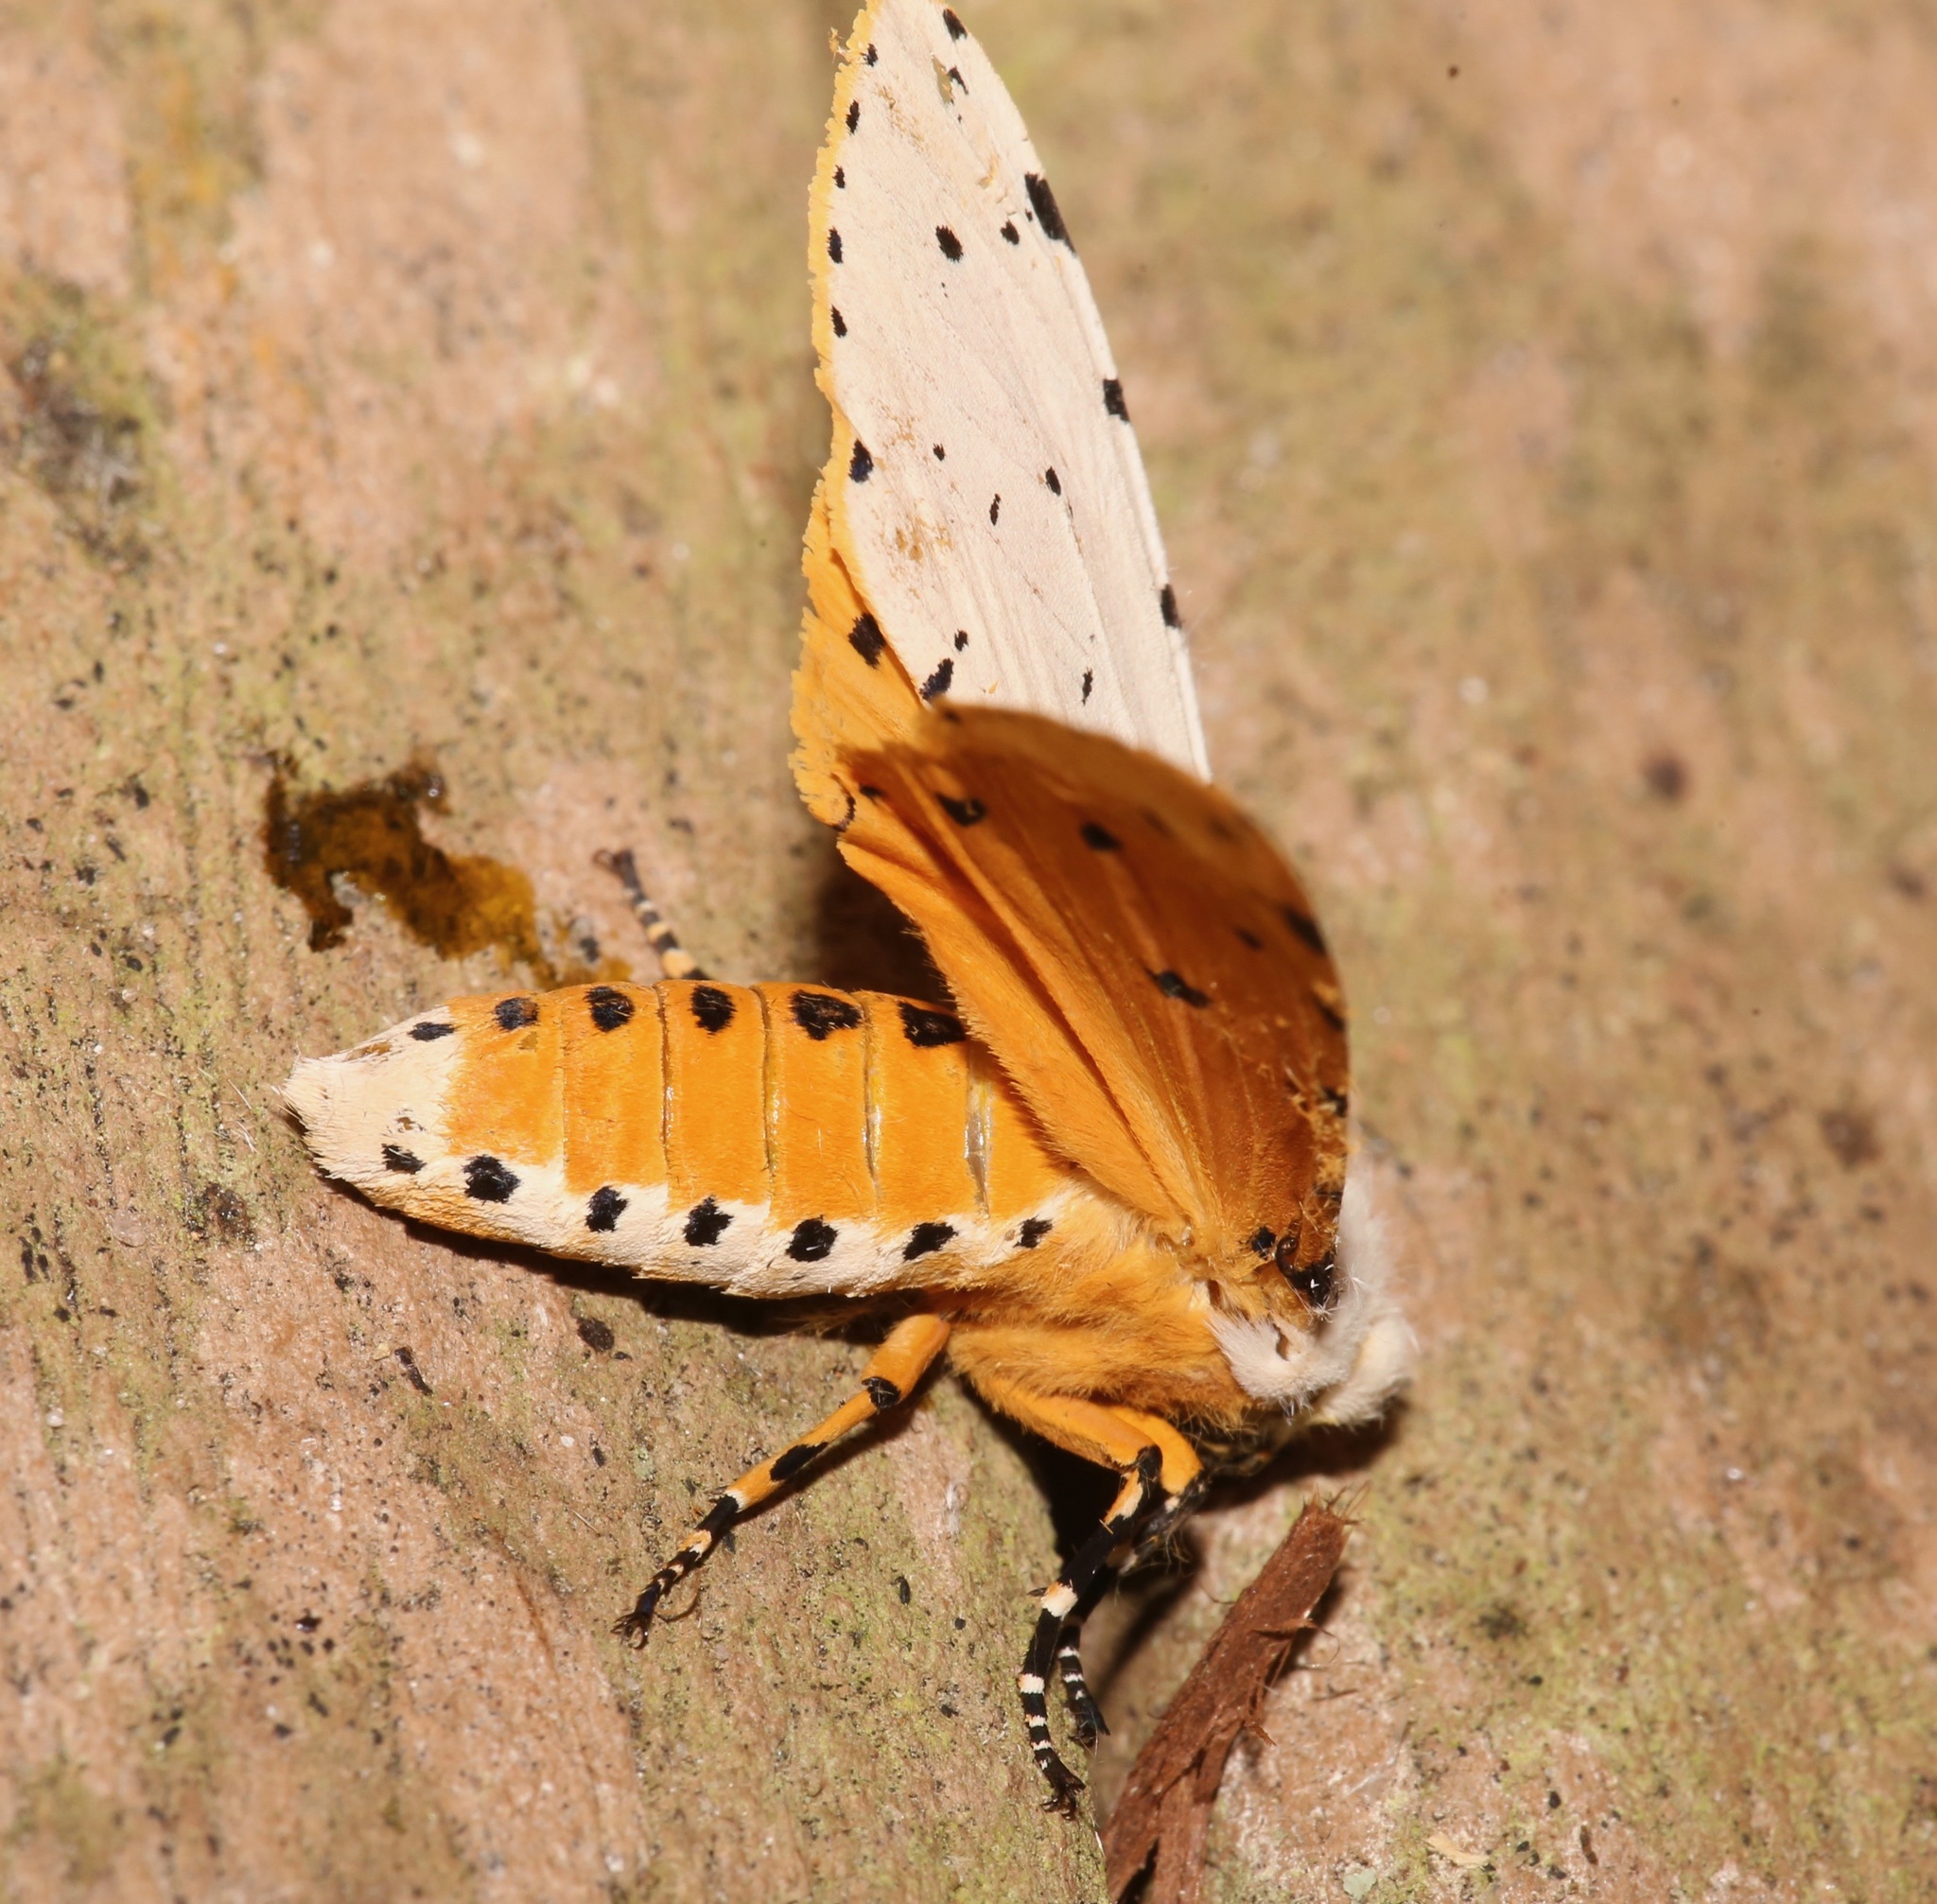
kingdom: Animalia
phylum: Arthropoda
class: Insecta
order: Lepidoptera
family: Erebidae
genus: Estigmene
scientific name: Estigmene acrea
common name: Salt marsh moth
